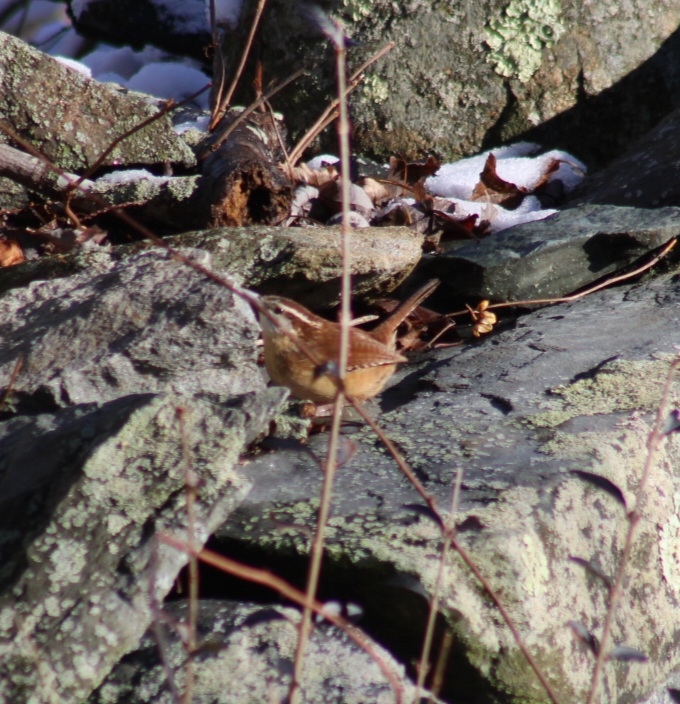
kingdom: Animalia
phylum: Chordata
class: Aves
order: Passeriformes
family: Troglodytidae
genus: Thryothorus
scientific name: Thryothorus ludovicianus
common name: Carolina wren
